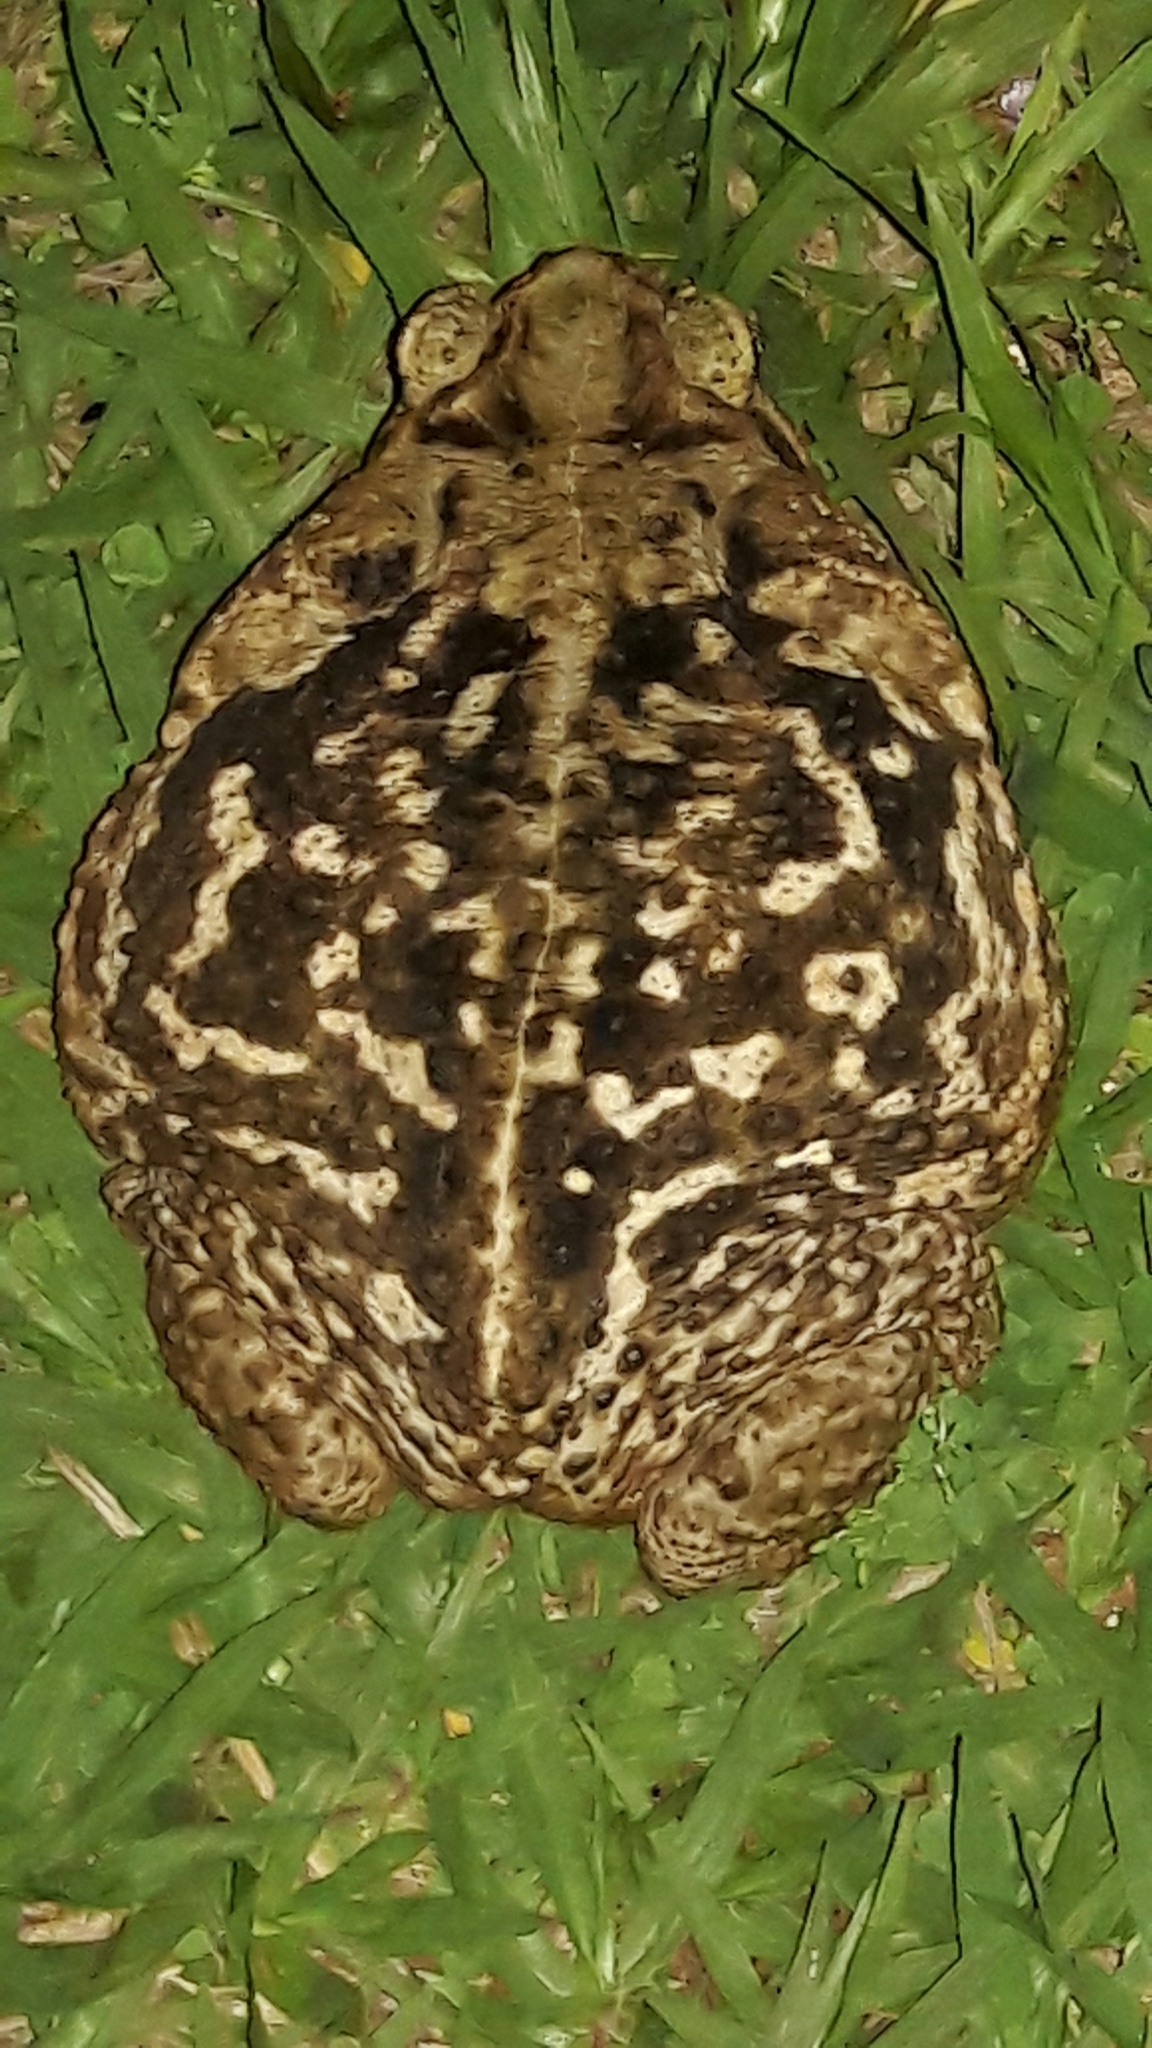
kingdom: Animalia
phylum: Chordata
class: Amphibia
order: Anura
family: Bufonidae
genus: Rhinella
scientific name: Rhinella diptycha
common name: Cope's toad
